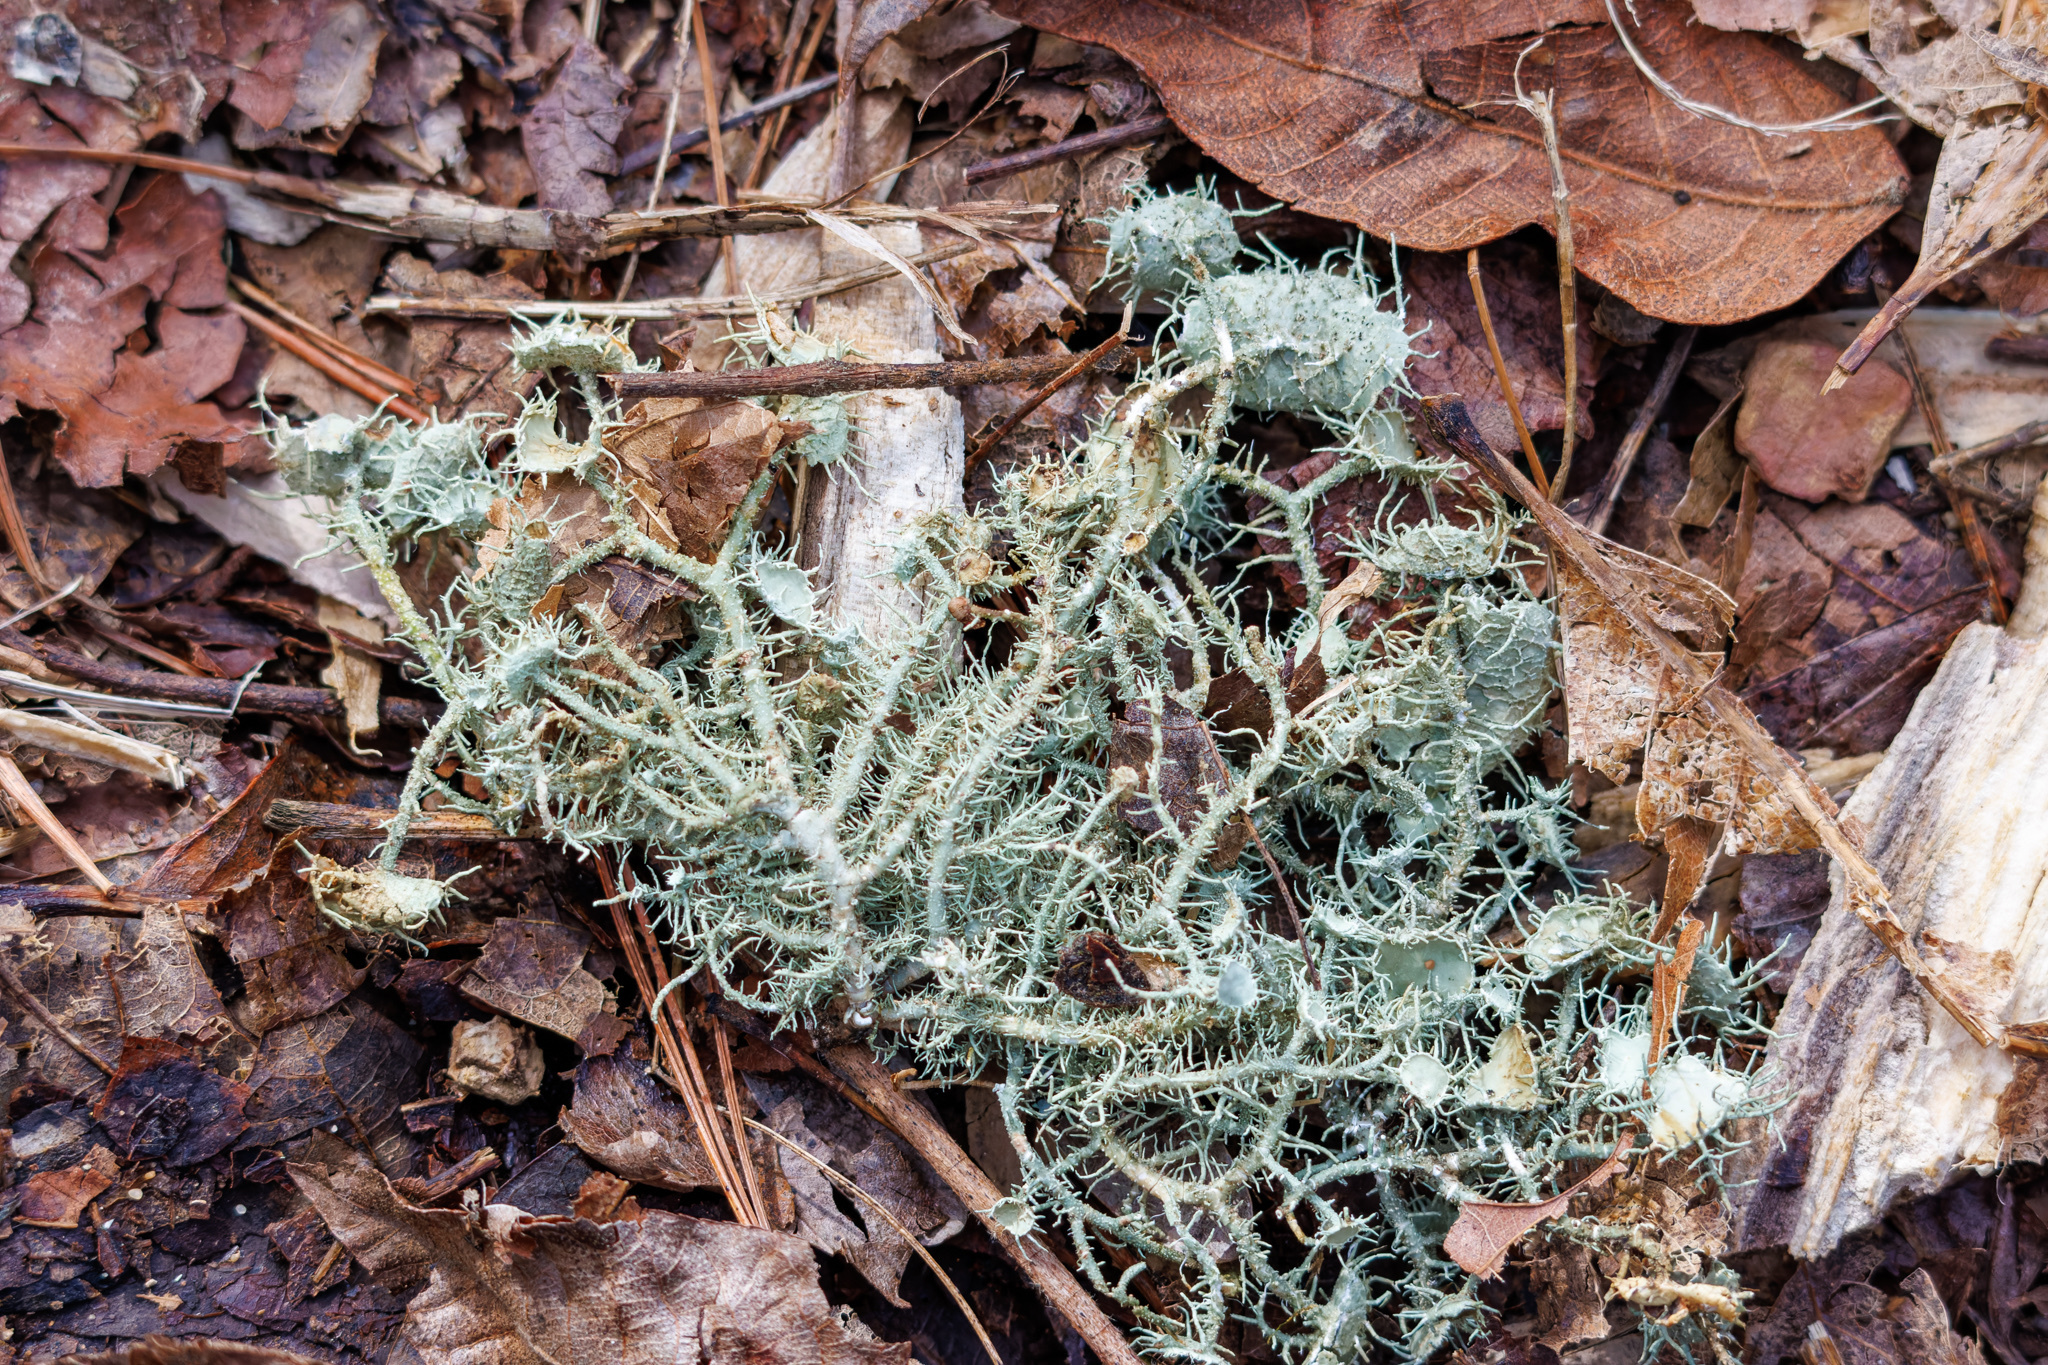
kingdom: Fungi
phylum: Ascomycota
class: Lecanoromycetes
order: Lecanorales
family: Parmeliaceae
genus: Usnea
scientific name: Usnea strigosa
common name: Bushy beard lichen
